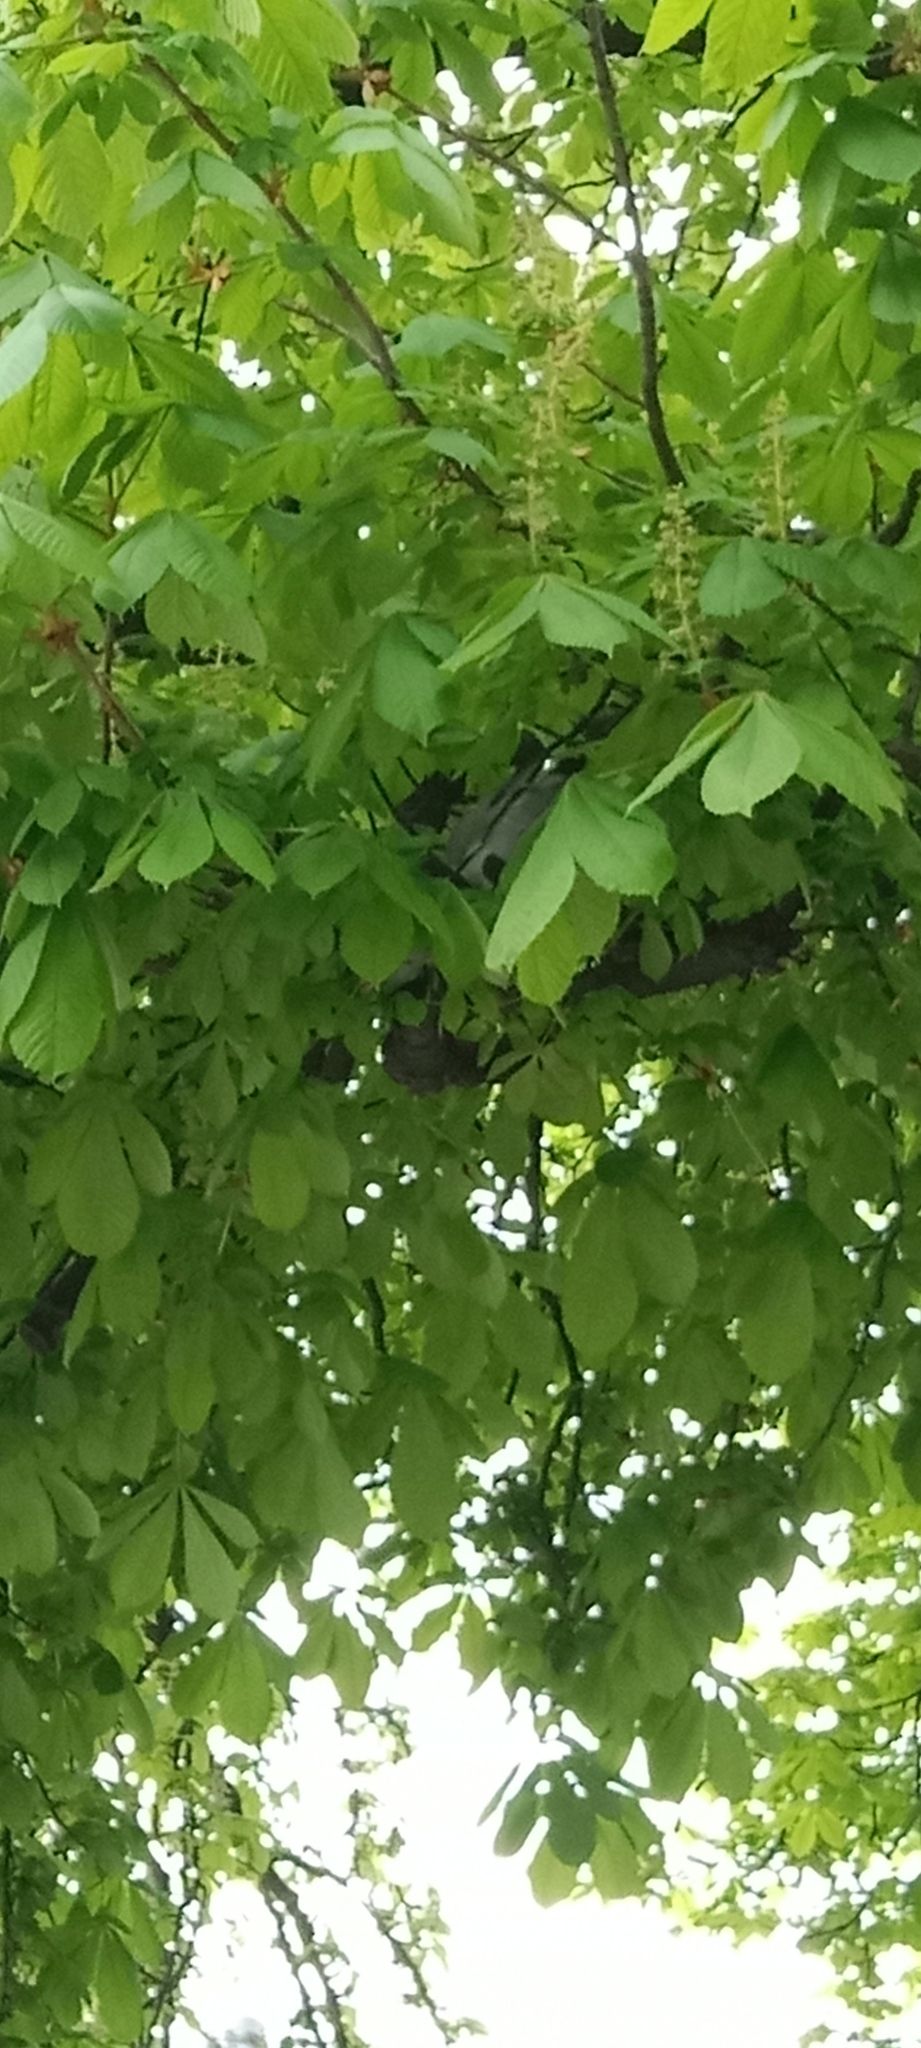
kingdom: Animalia
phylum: Chordata
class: Aves
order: Columbiformes
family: Columbidae
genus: Columba
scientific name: Columba palumbus
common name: Common wood pigeon
